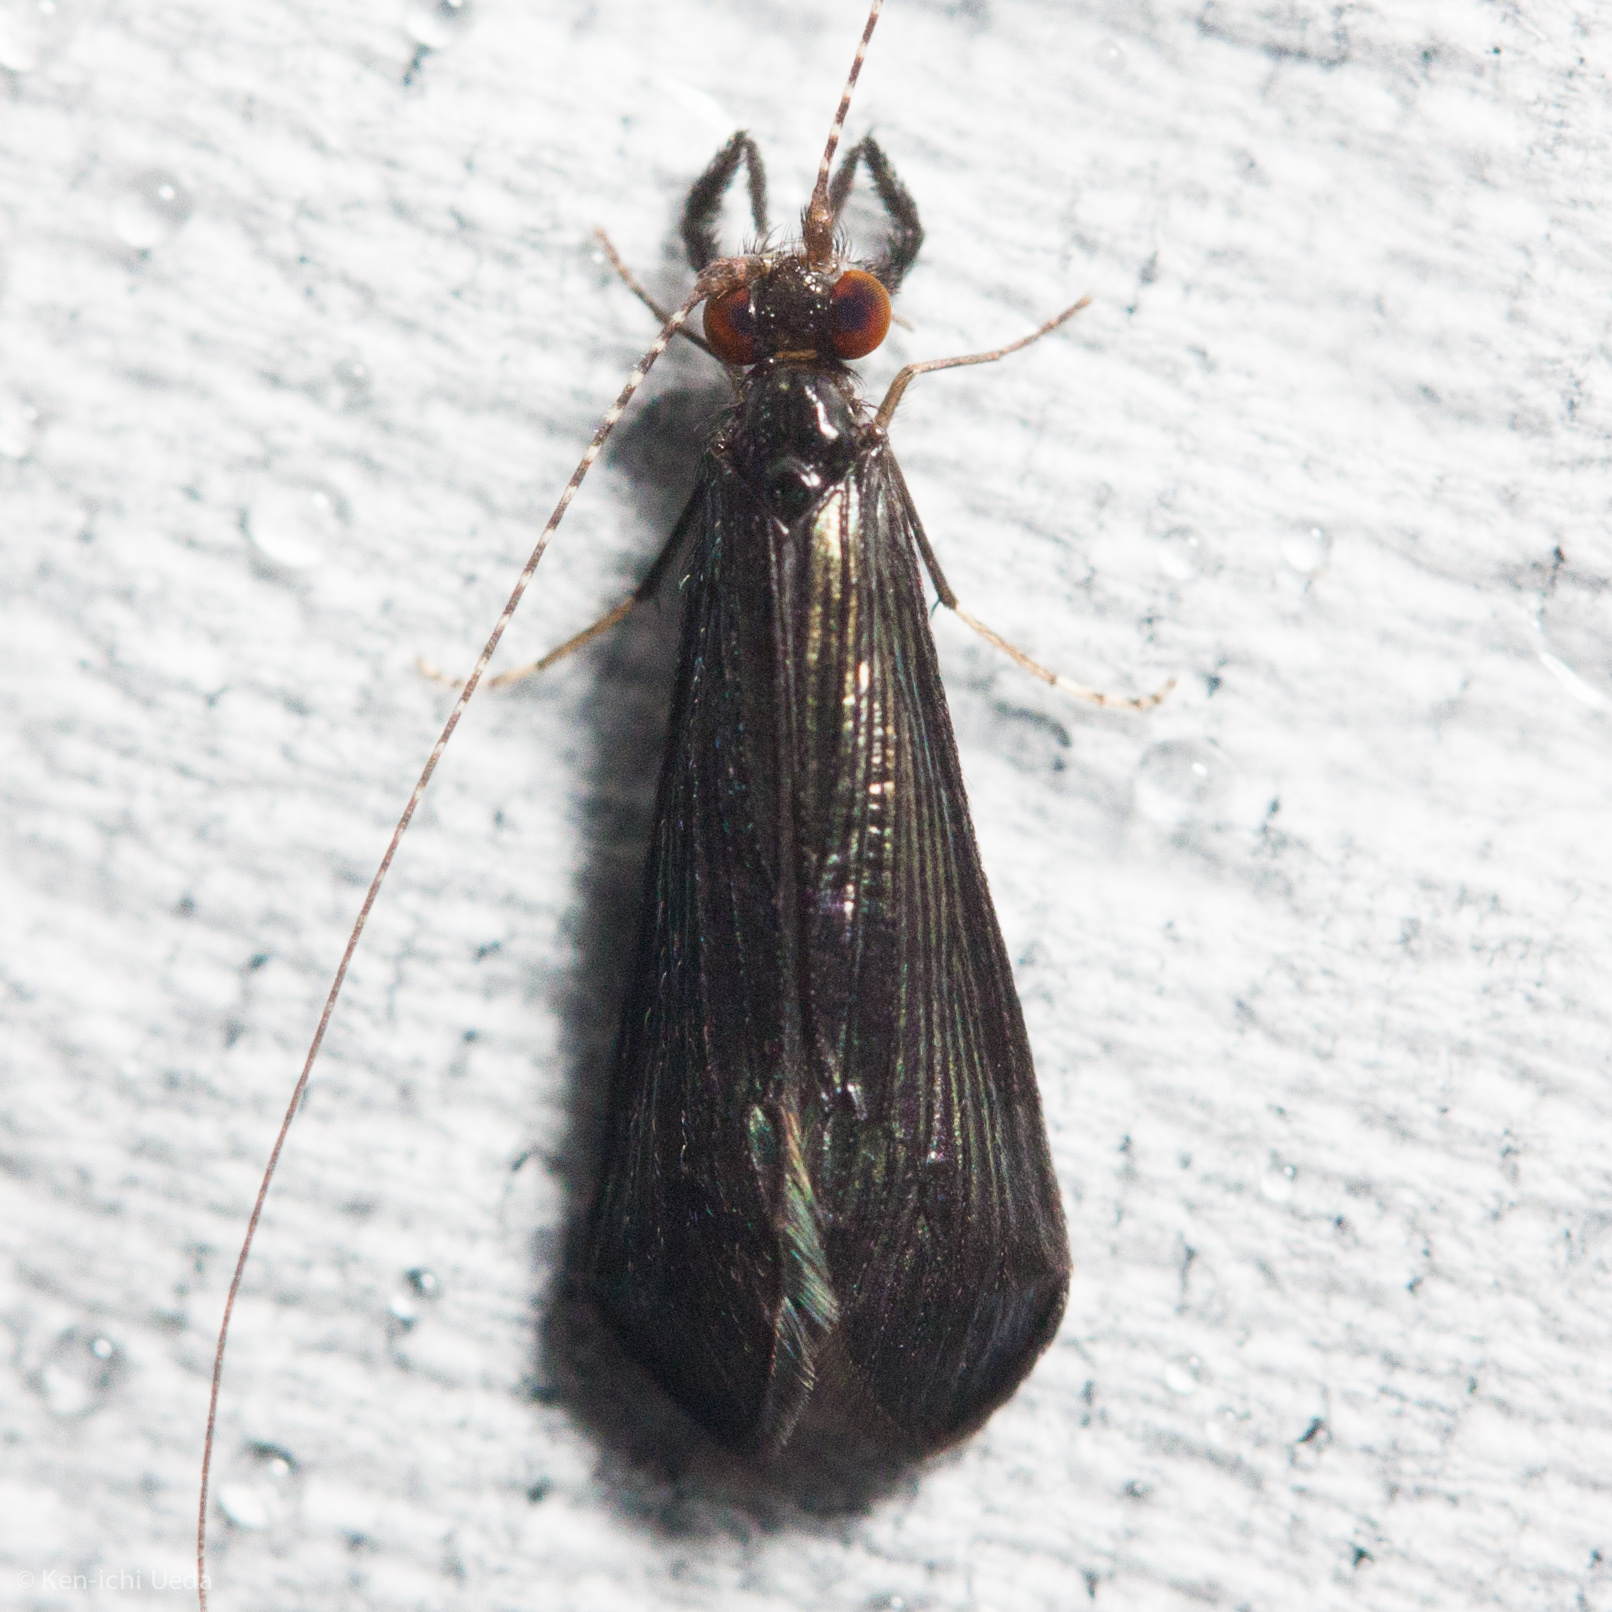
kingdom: Animalia
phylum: Arthropoda
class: Insecta
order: Trichoptera
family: Leptoceridae
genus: Mystacides
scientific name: Mystacides sepulchralis
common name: Black dancer caddisfly
